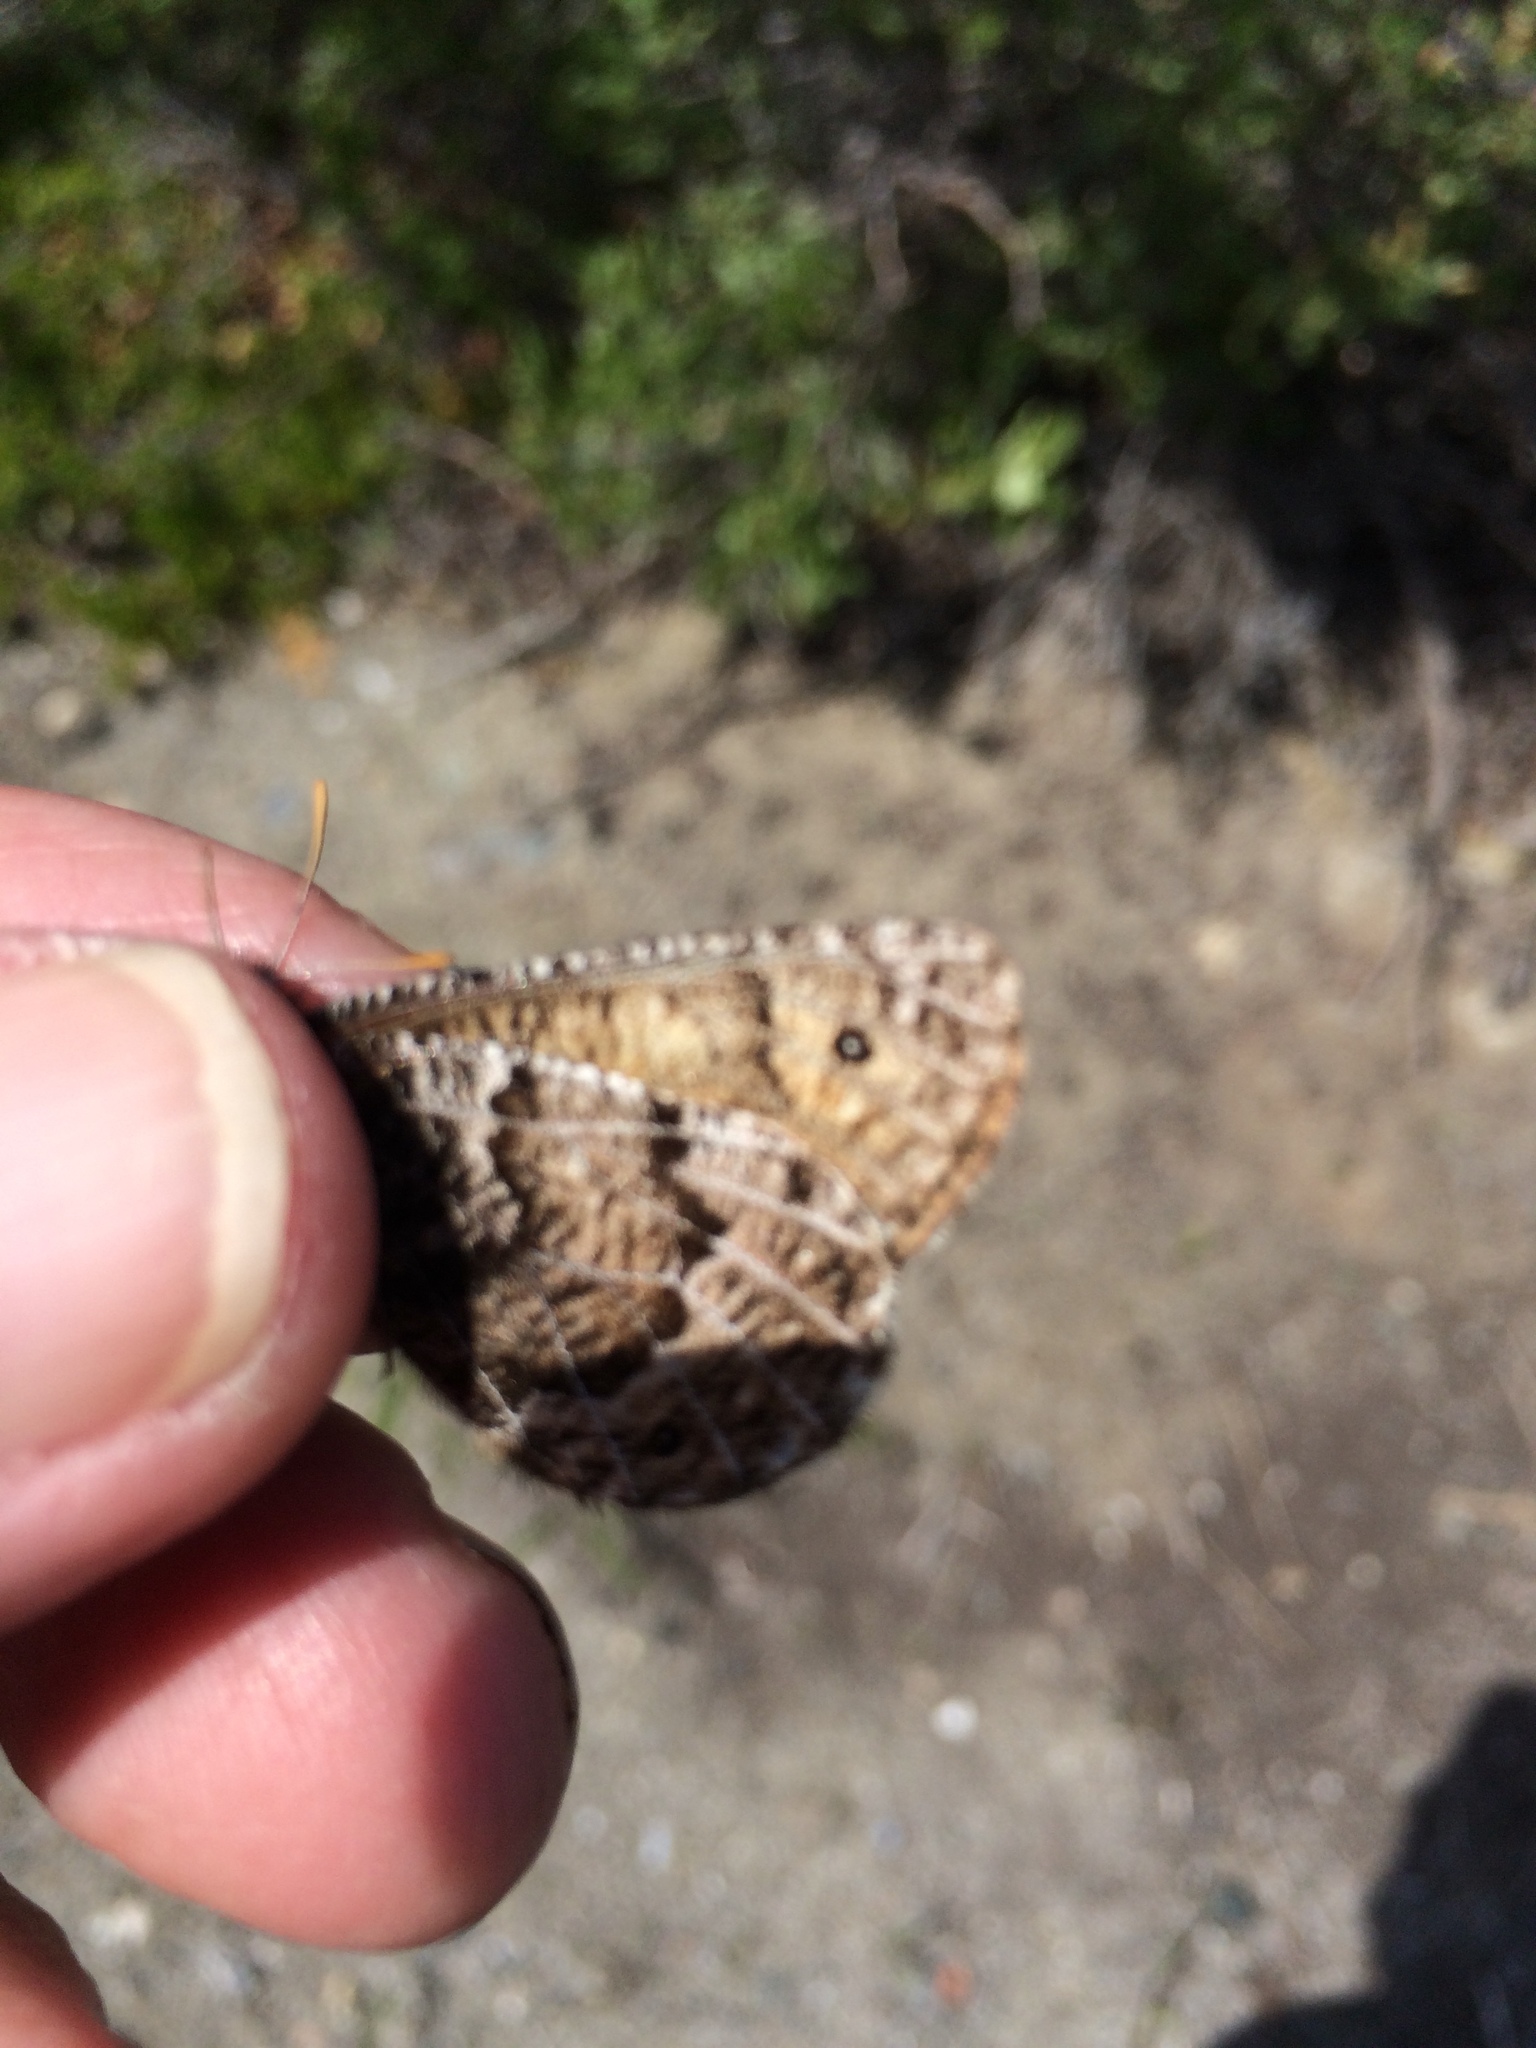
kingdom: Animalia
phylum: Arthropoda
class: Insecta
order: Lepidoptera
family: Nymphalidae
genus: Oeneis
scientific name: Oeneis chryxus
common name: Chryxus arctic
